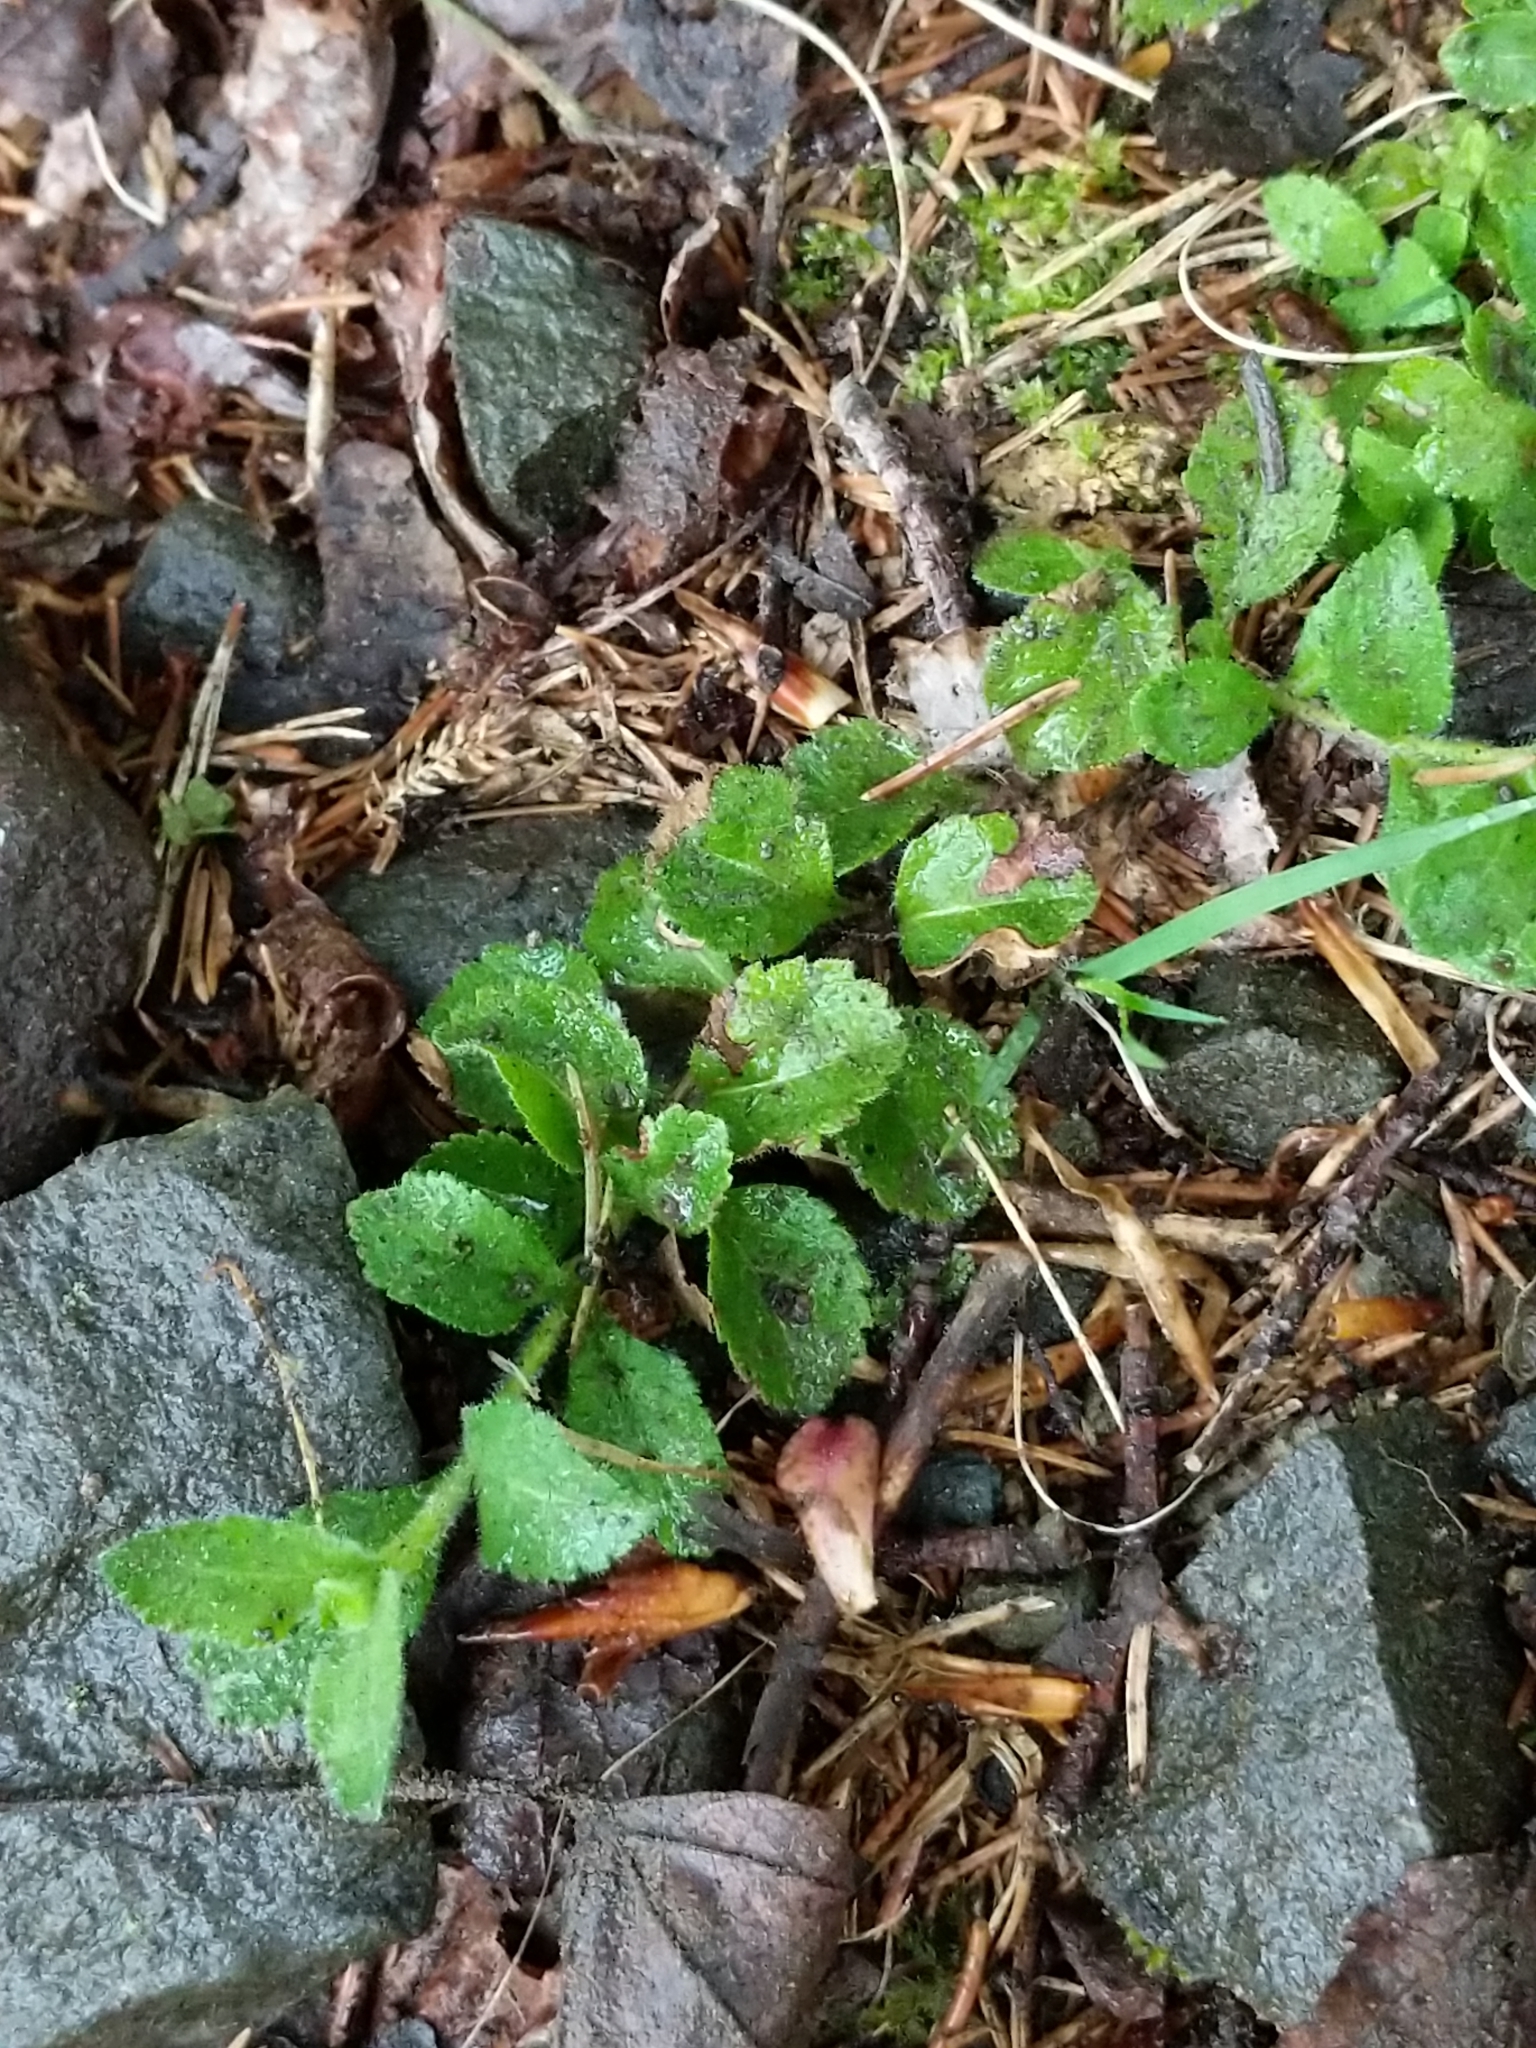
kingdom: Plantae
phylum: Tracheophyta
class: Magnoliopsida
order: Lamiales
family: Plantaginaceae
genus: Veronica
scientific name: Veronica officinalis
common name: Common speedwell
